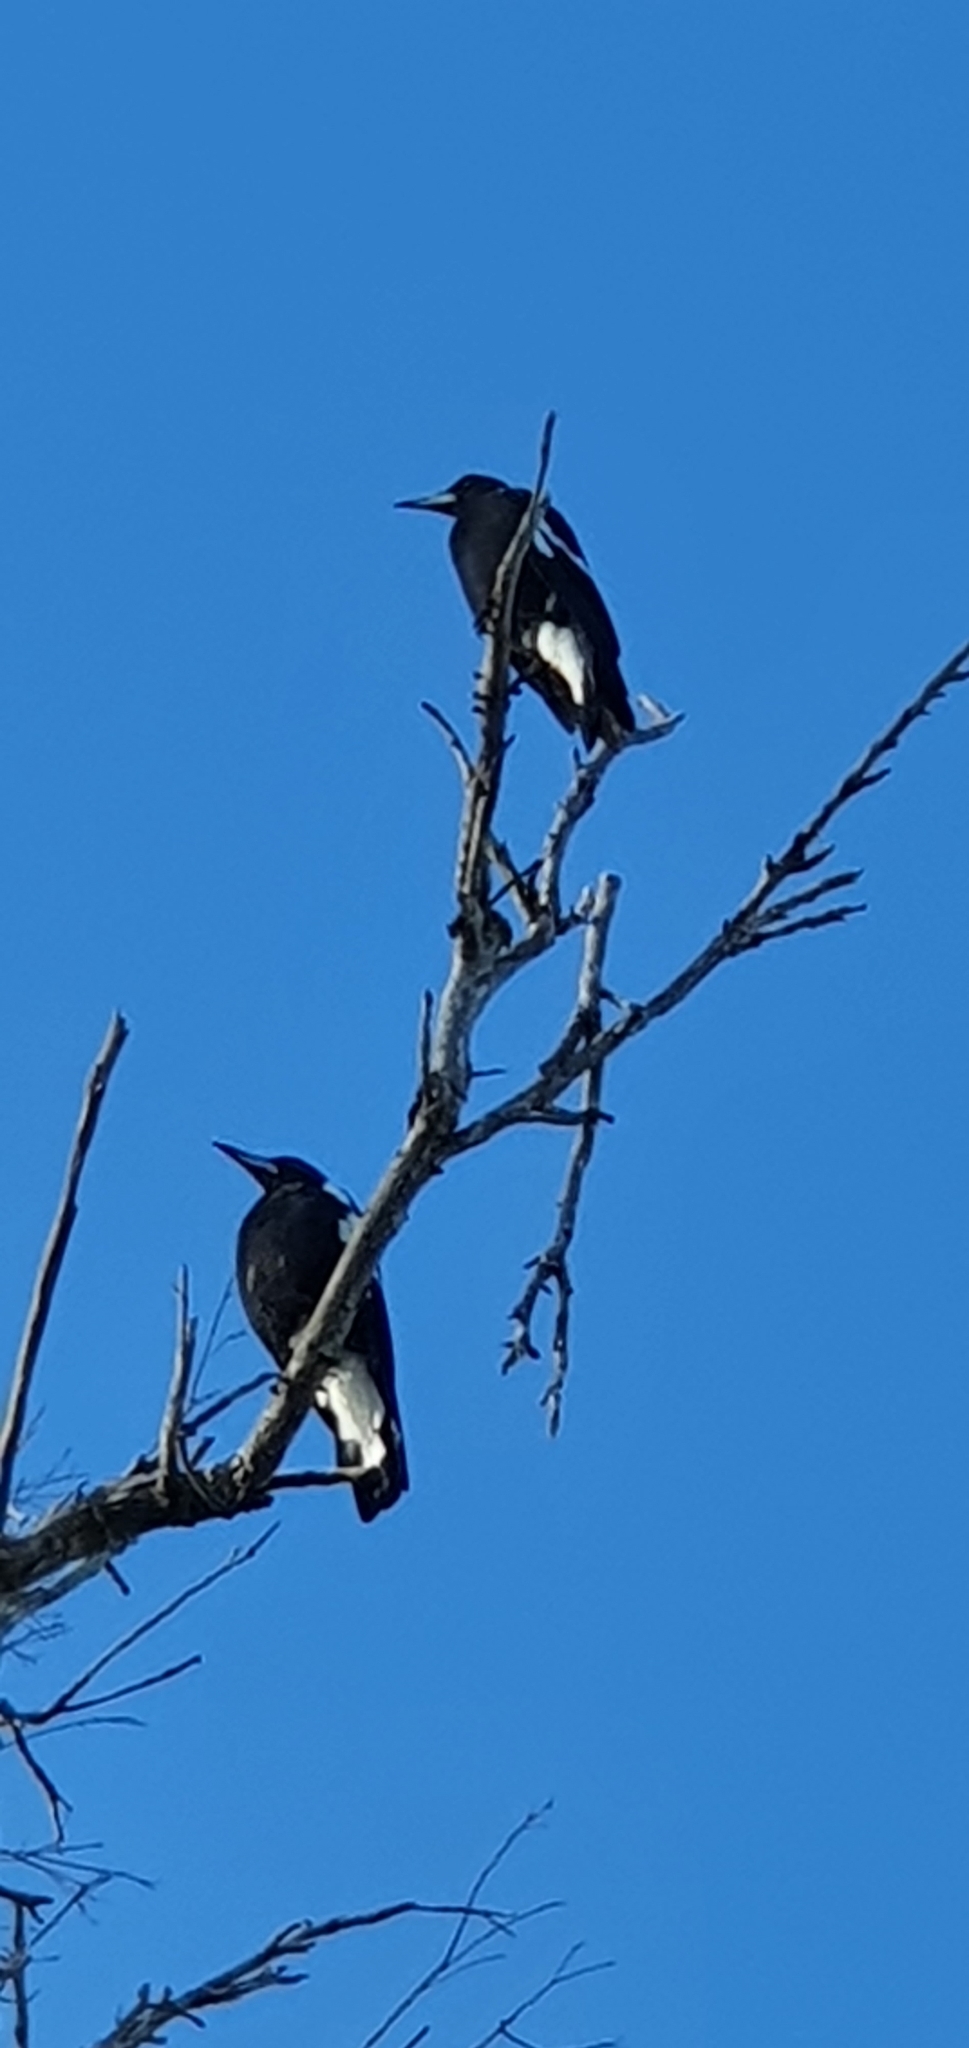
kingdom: Animalia
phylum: Chordata
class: Aves
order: Passeriformes
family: Cracticidae
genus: Gymnorhina
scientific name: Gymnorhina tibicen
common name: Australian magpie
